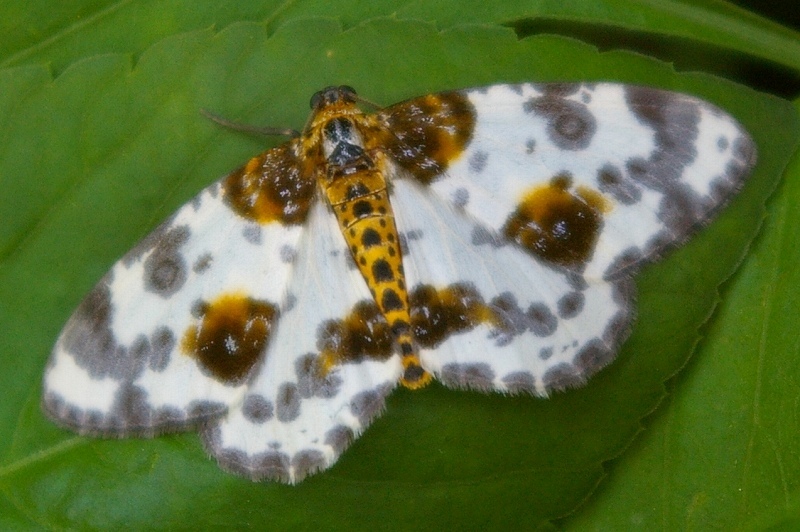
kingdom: Animalia
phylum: Arthropoda
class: Insecta
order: Lepidoptera
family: Geometridae
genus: Abraxas
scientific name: Abraxas niphonibia
